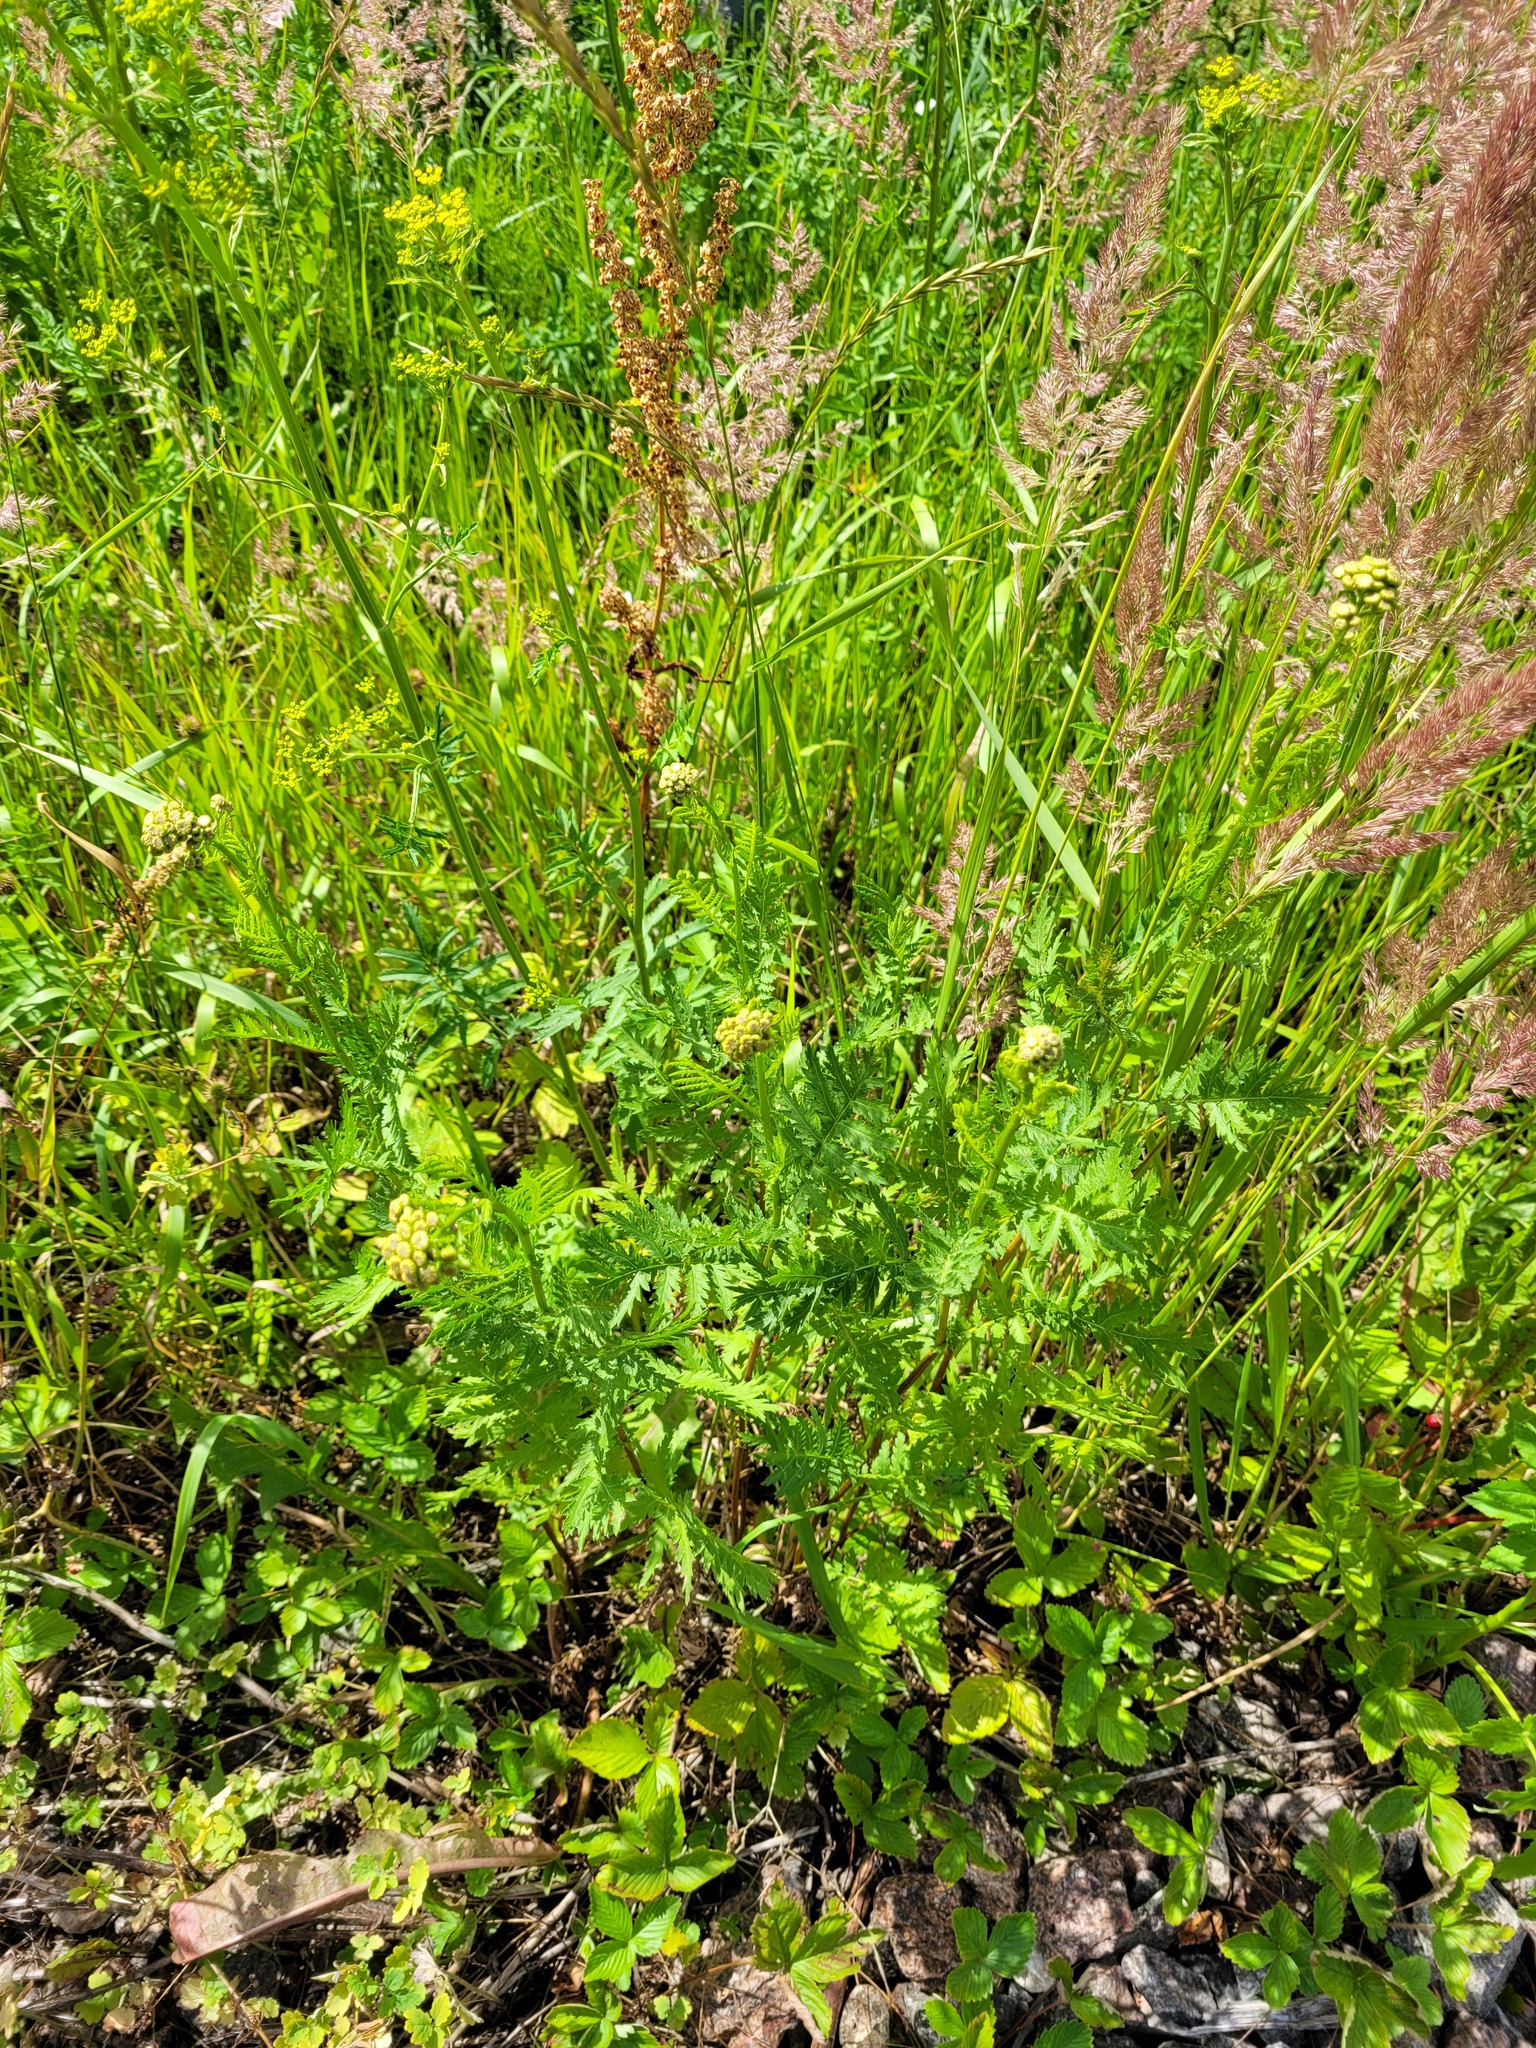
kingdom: Plantae
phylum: Tracheophyta
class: Magnoliopsida
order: Asterales
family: Asteraceae
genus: Tanacetum
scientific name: Tanacetum vulgare
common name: Common tansy
